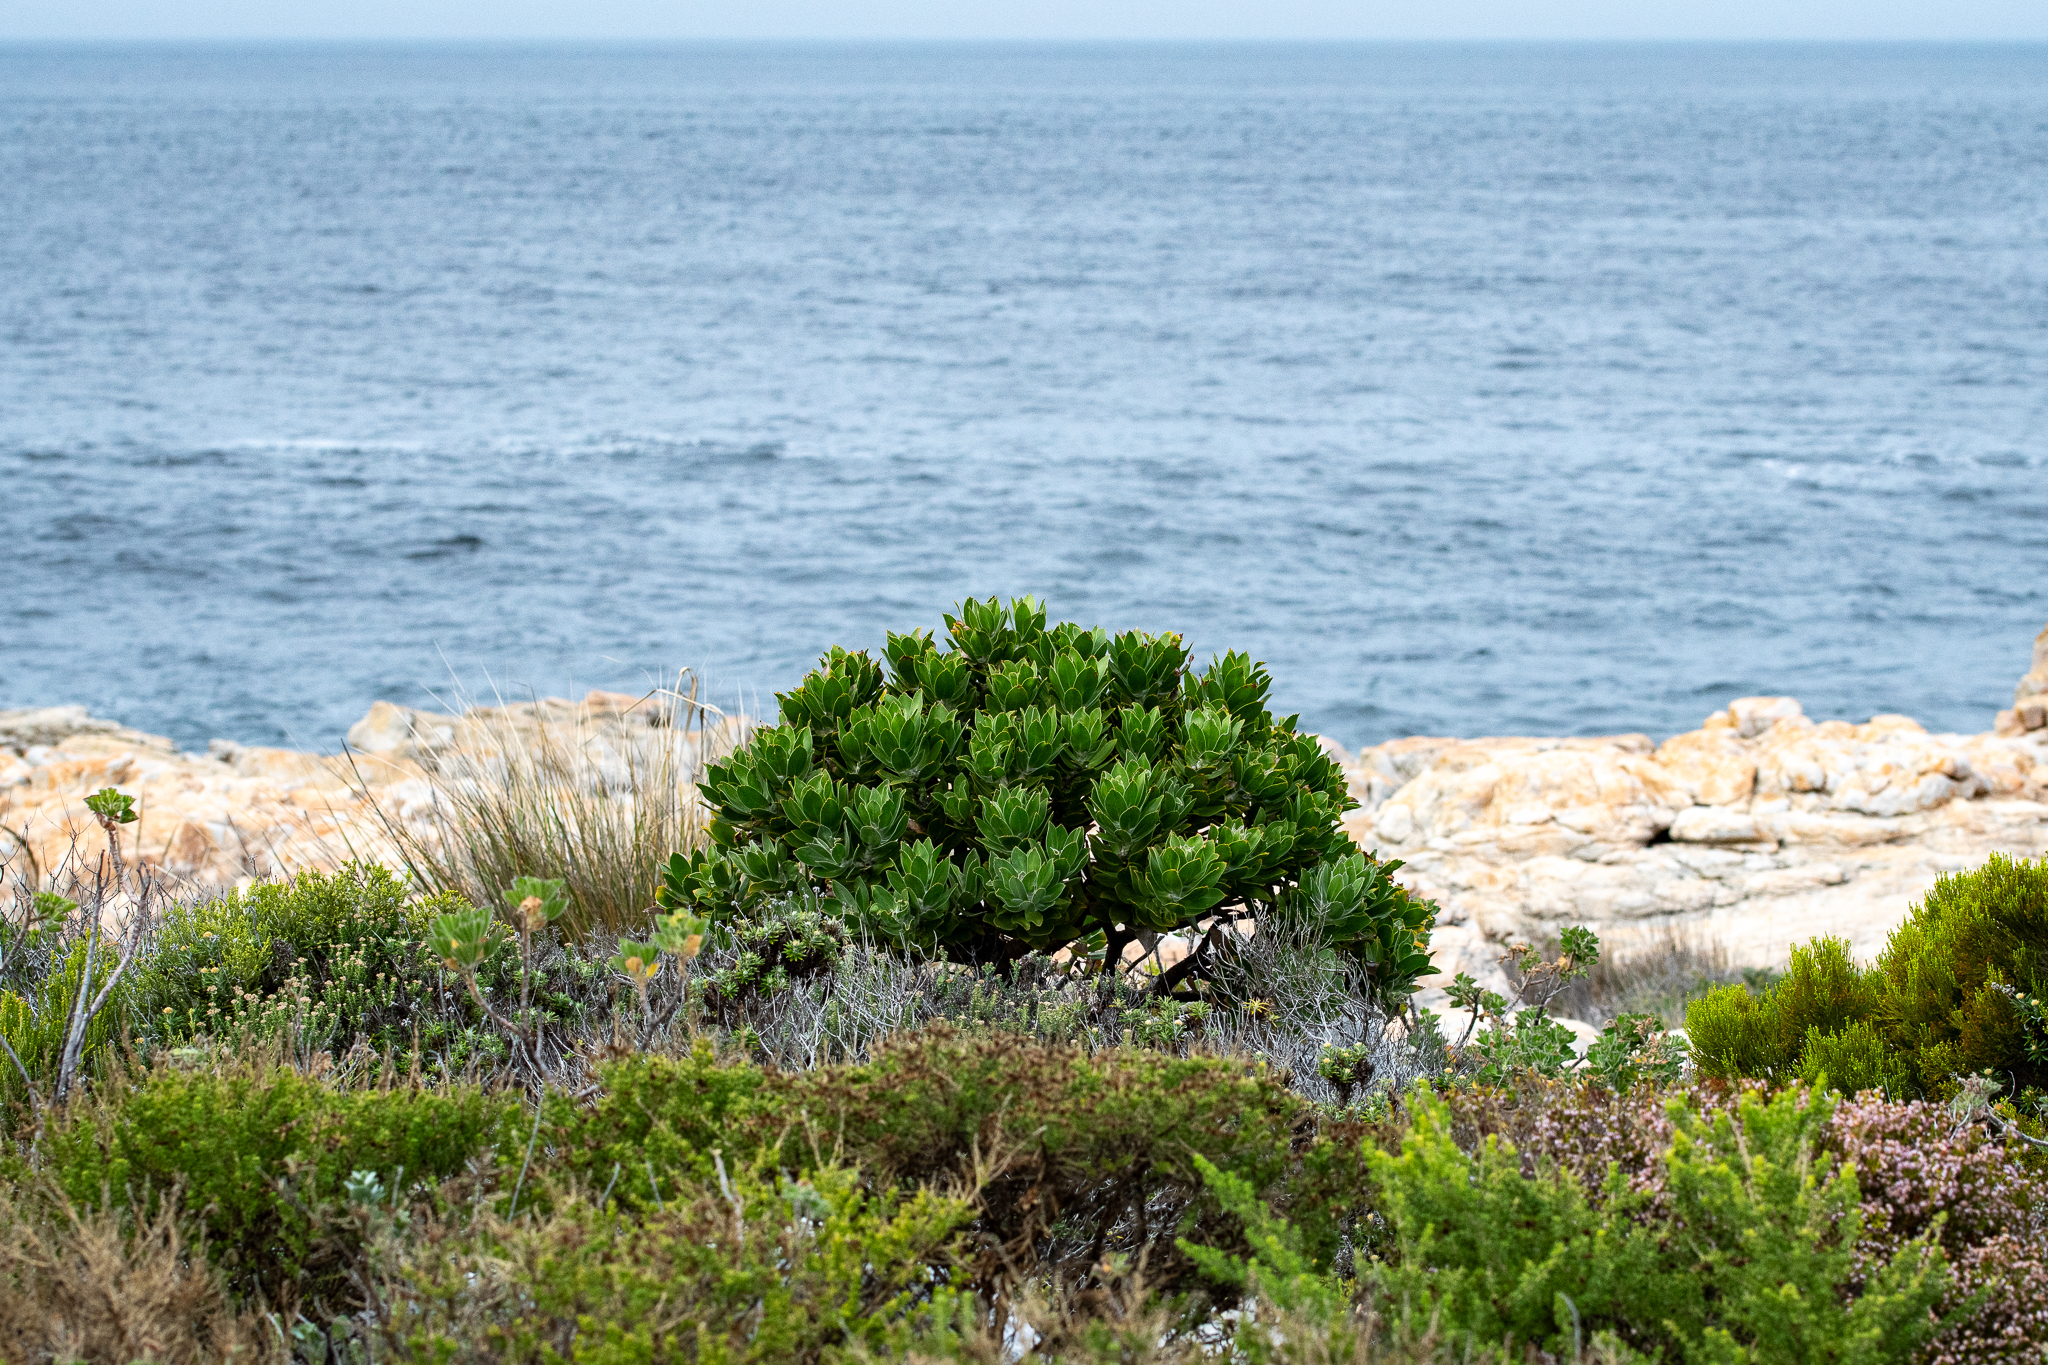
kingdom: Plantae
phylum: Tracheophyta
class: Magnoliopsida
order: Proteales
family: Proteaceae
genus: Leucospermum
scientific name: Leucospermum conocarpodendron
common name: Tree pincushion
